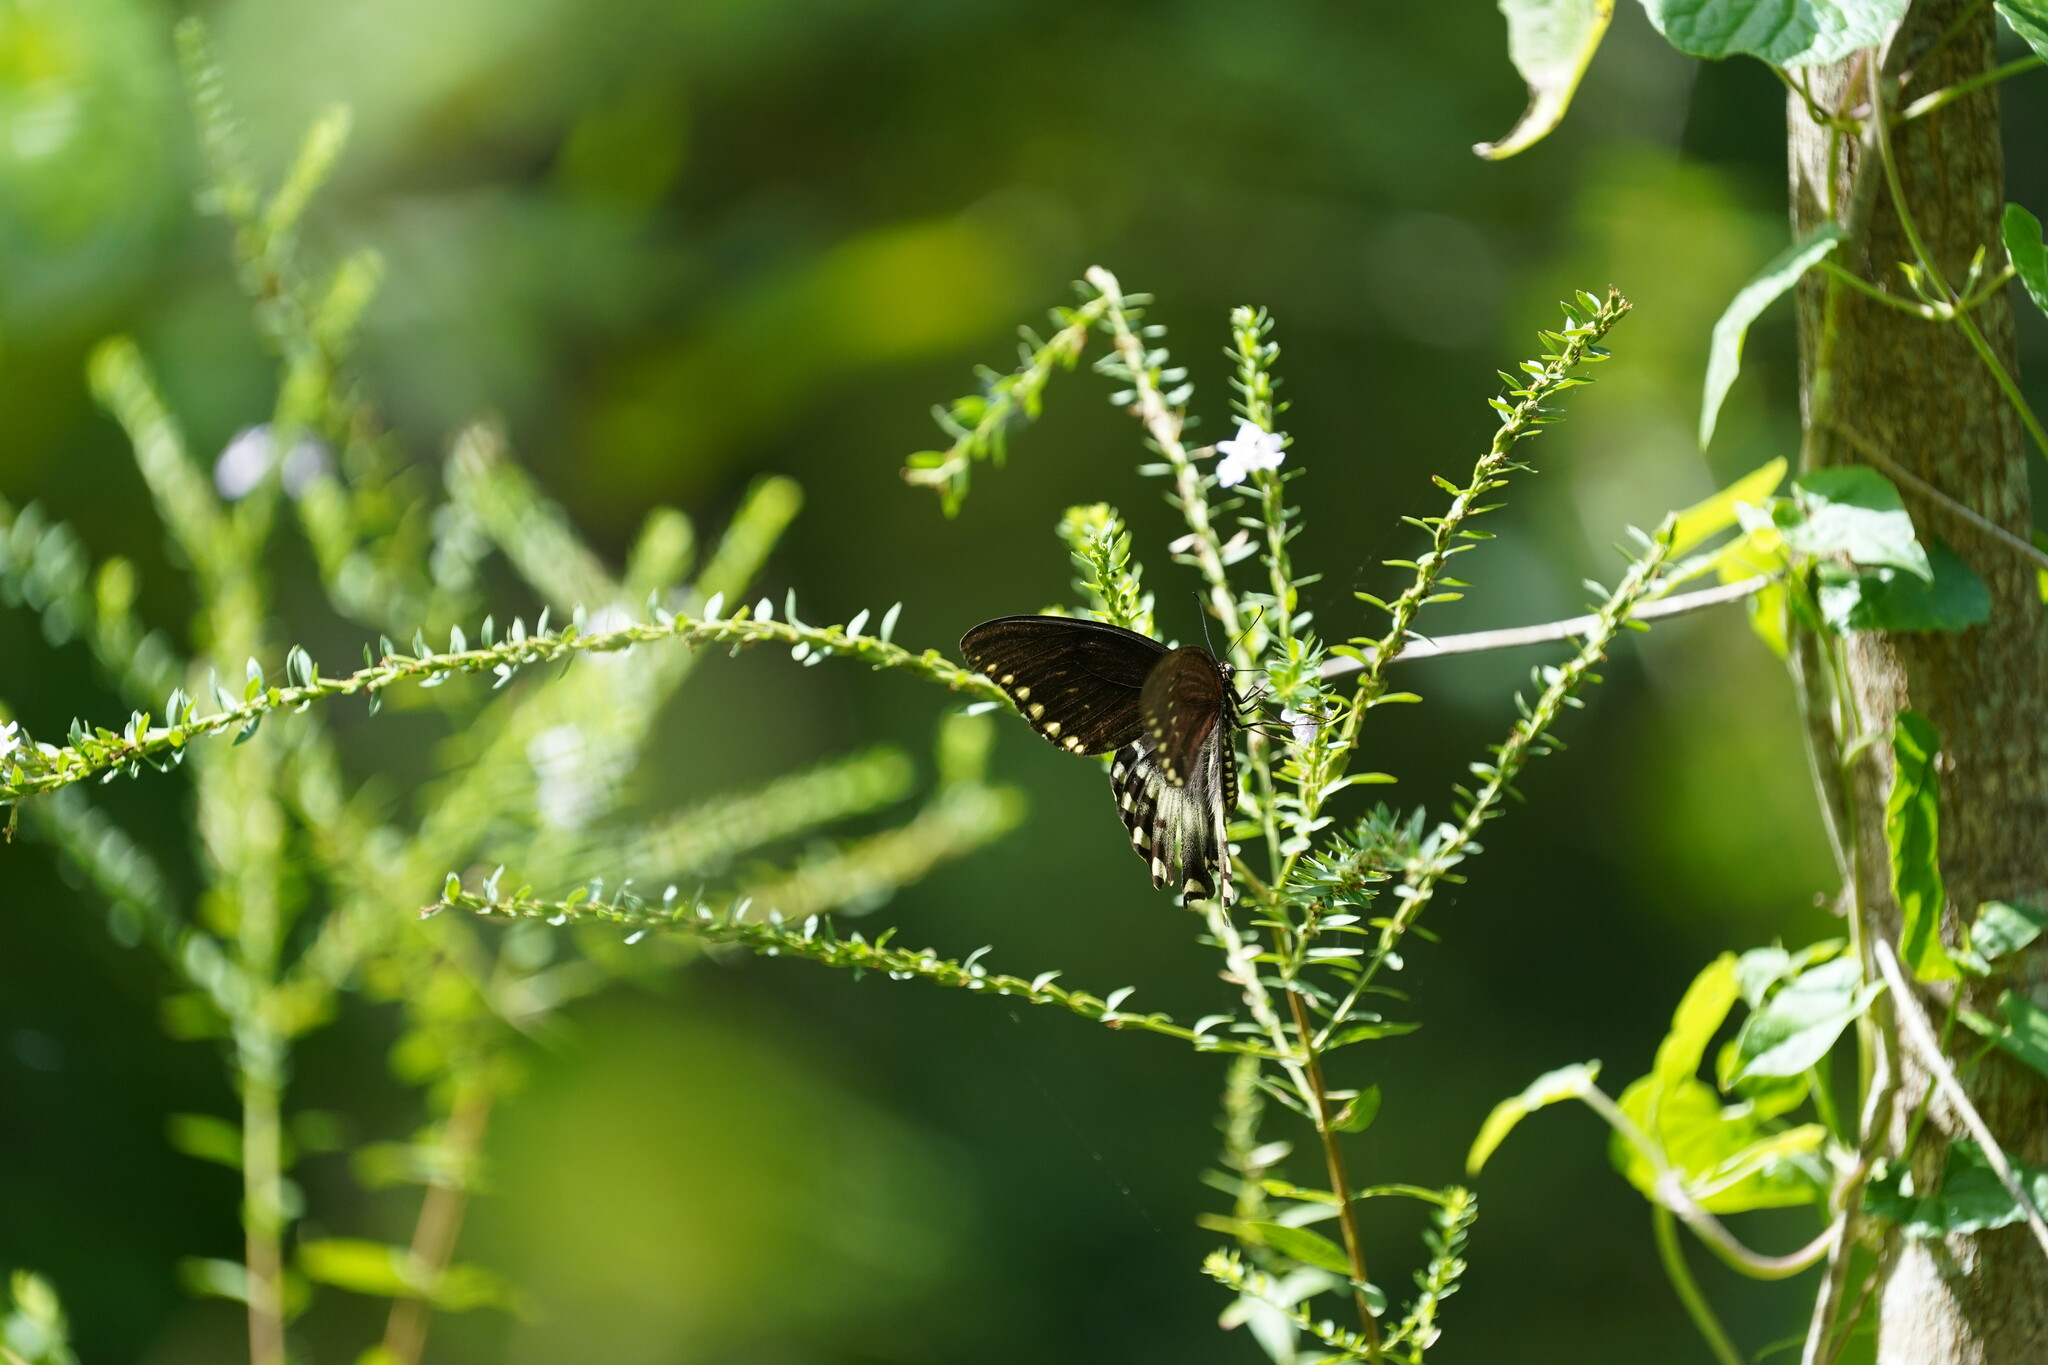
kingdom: Animalia
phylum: Arthropoda
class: Insecta
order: Lepidoptera
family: Papilionidae
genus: Papilio
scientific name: Papilio troilus
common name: Spicebush swallowtail
